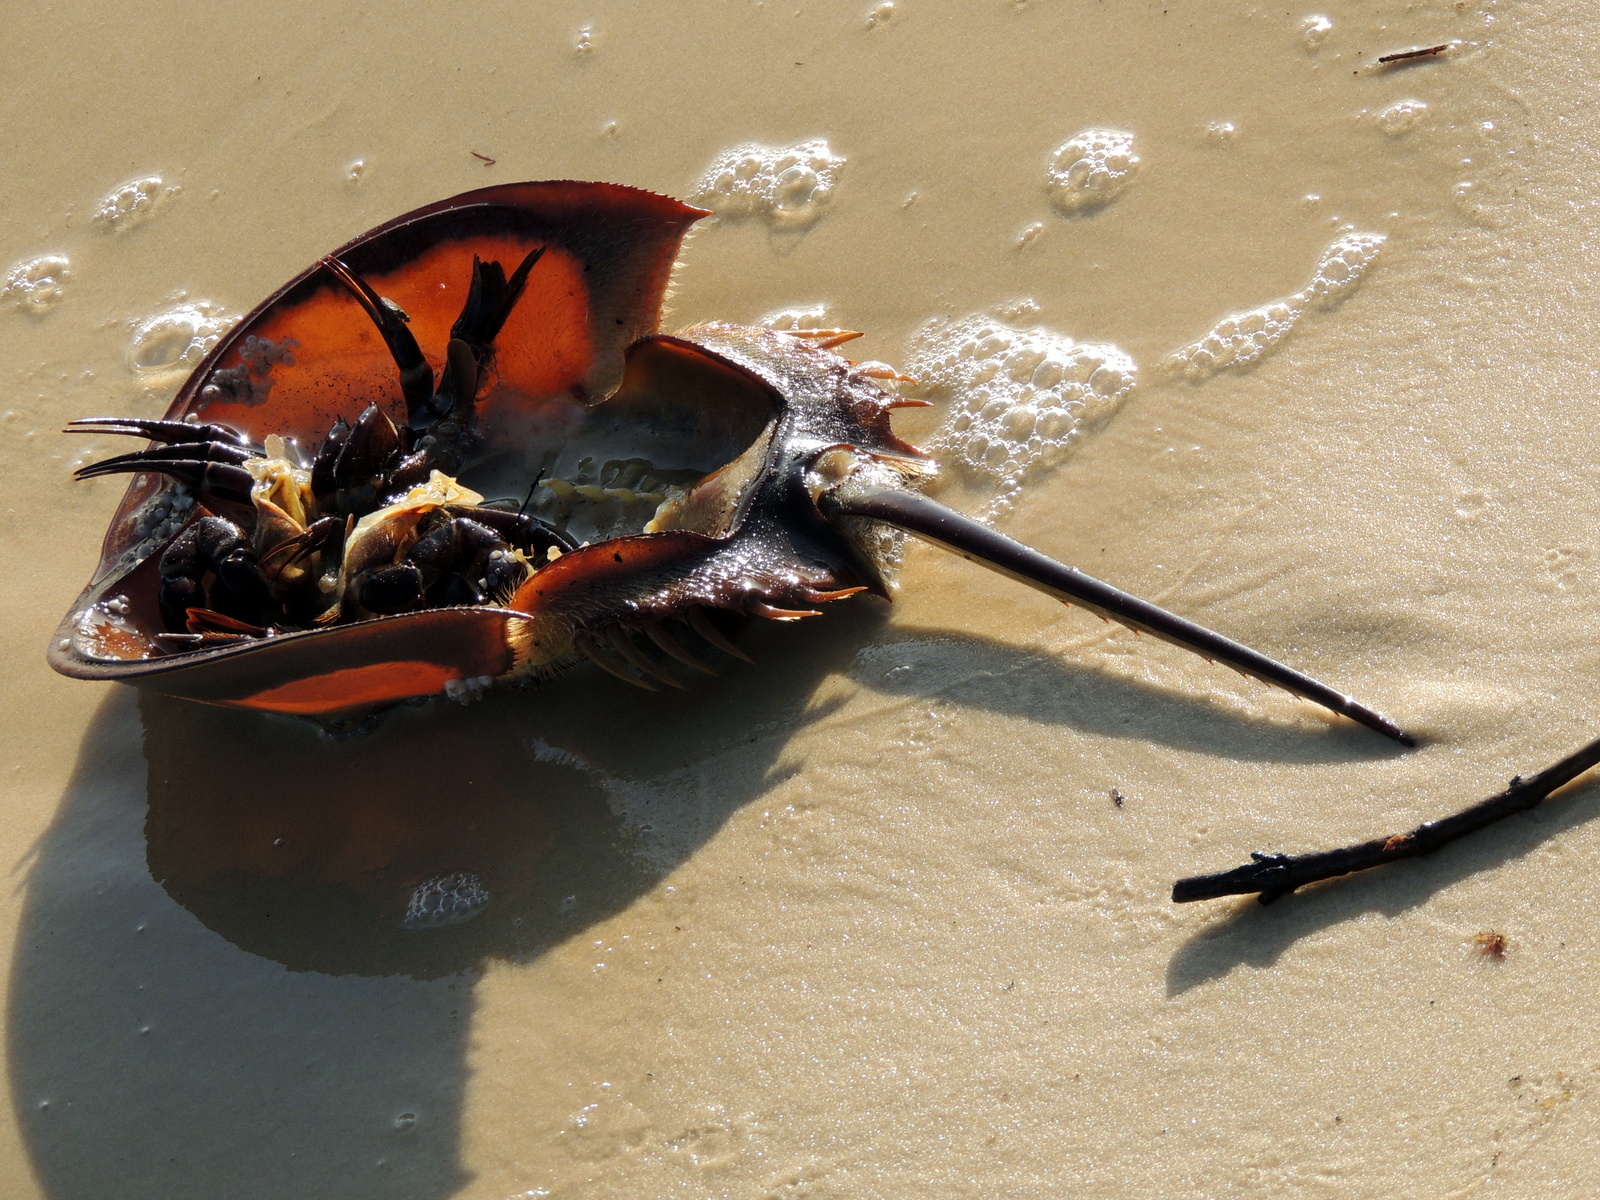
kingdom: Animalia
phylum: Arthropoda
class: Merostomata
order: Xiphosurida
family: Limulidae
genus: Limulus
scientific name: Limulus polyphemus
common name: Horseshoe crab
